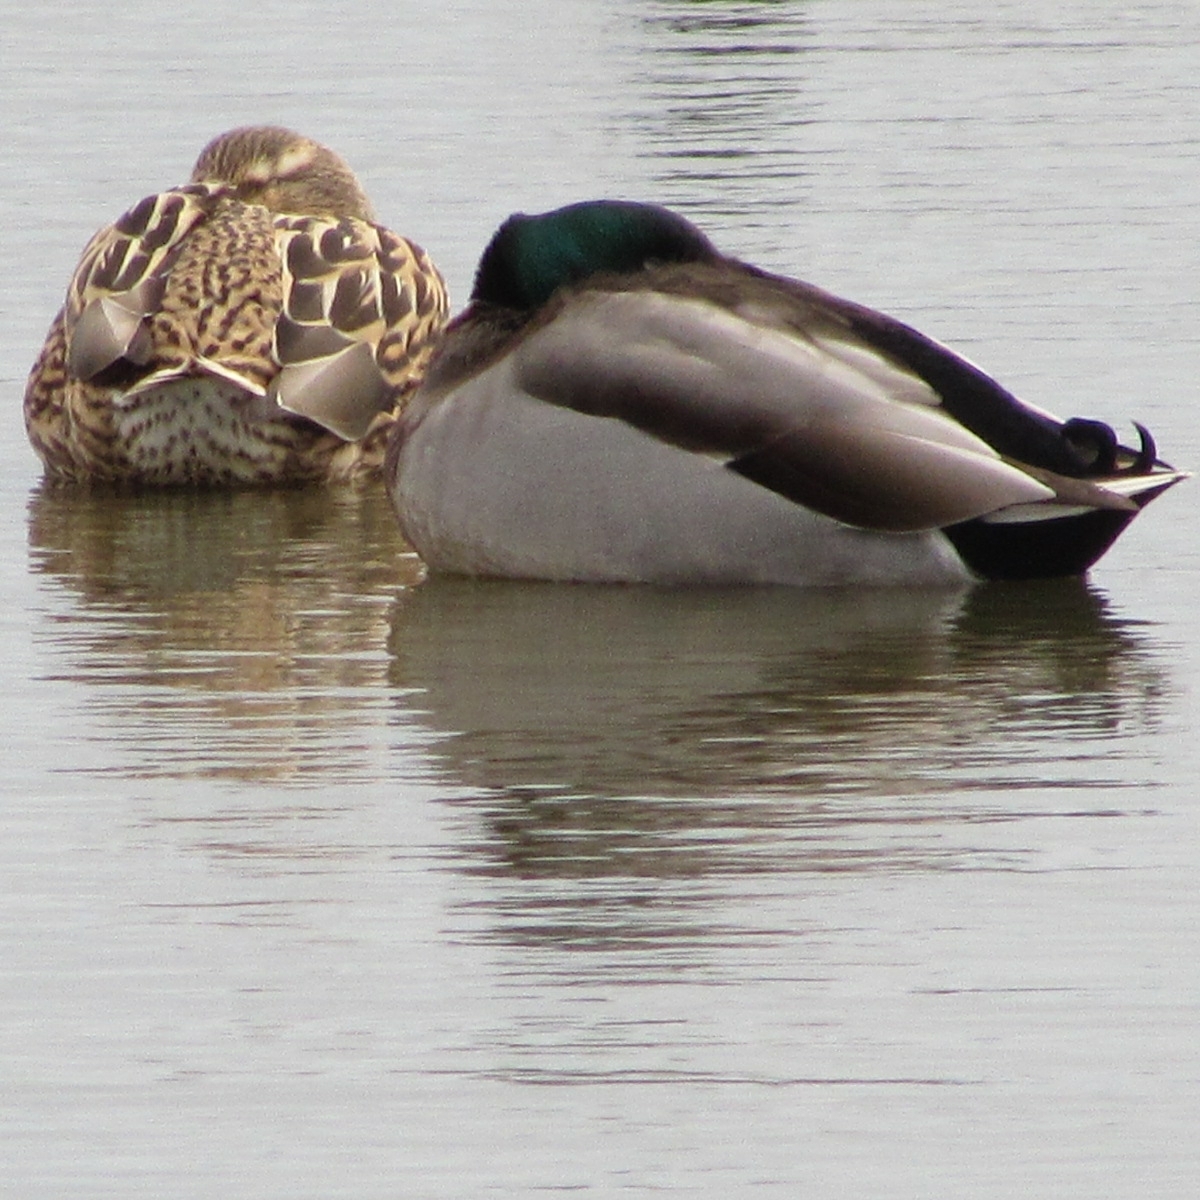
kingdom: Animalia
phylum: Chordata
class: Aves
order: Anseriformes
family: Anatidae
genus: Anas
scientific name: Anas platyrhynchos
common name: Mallard
